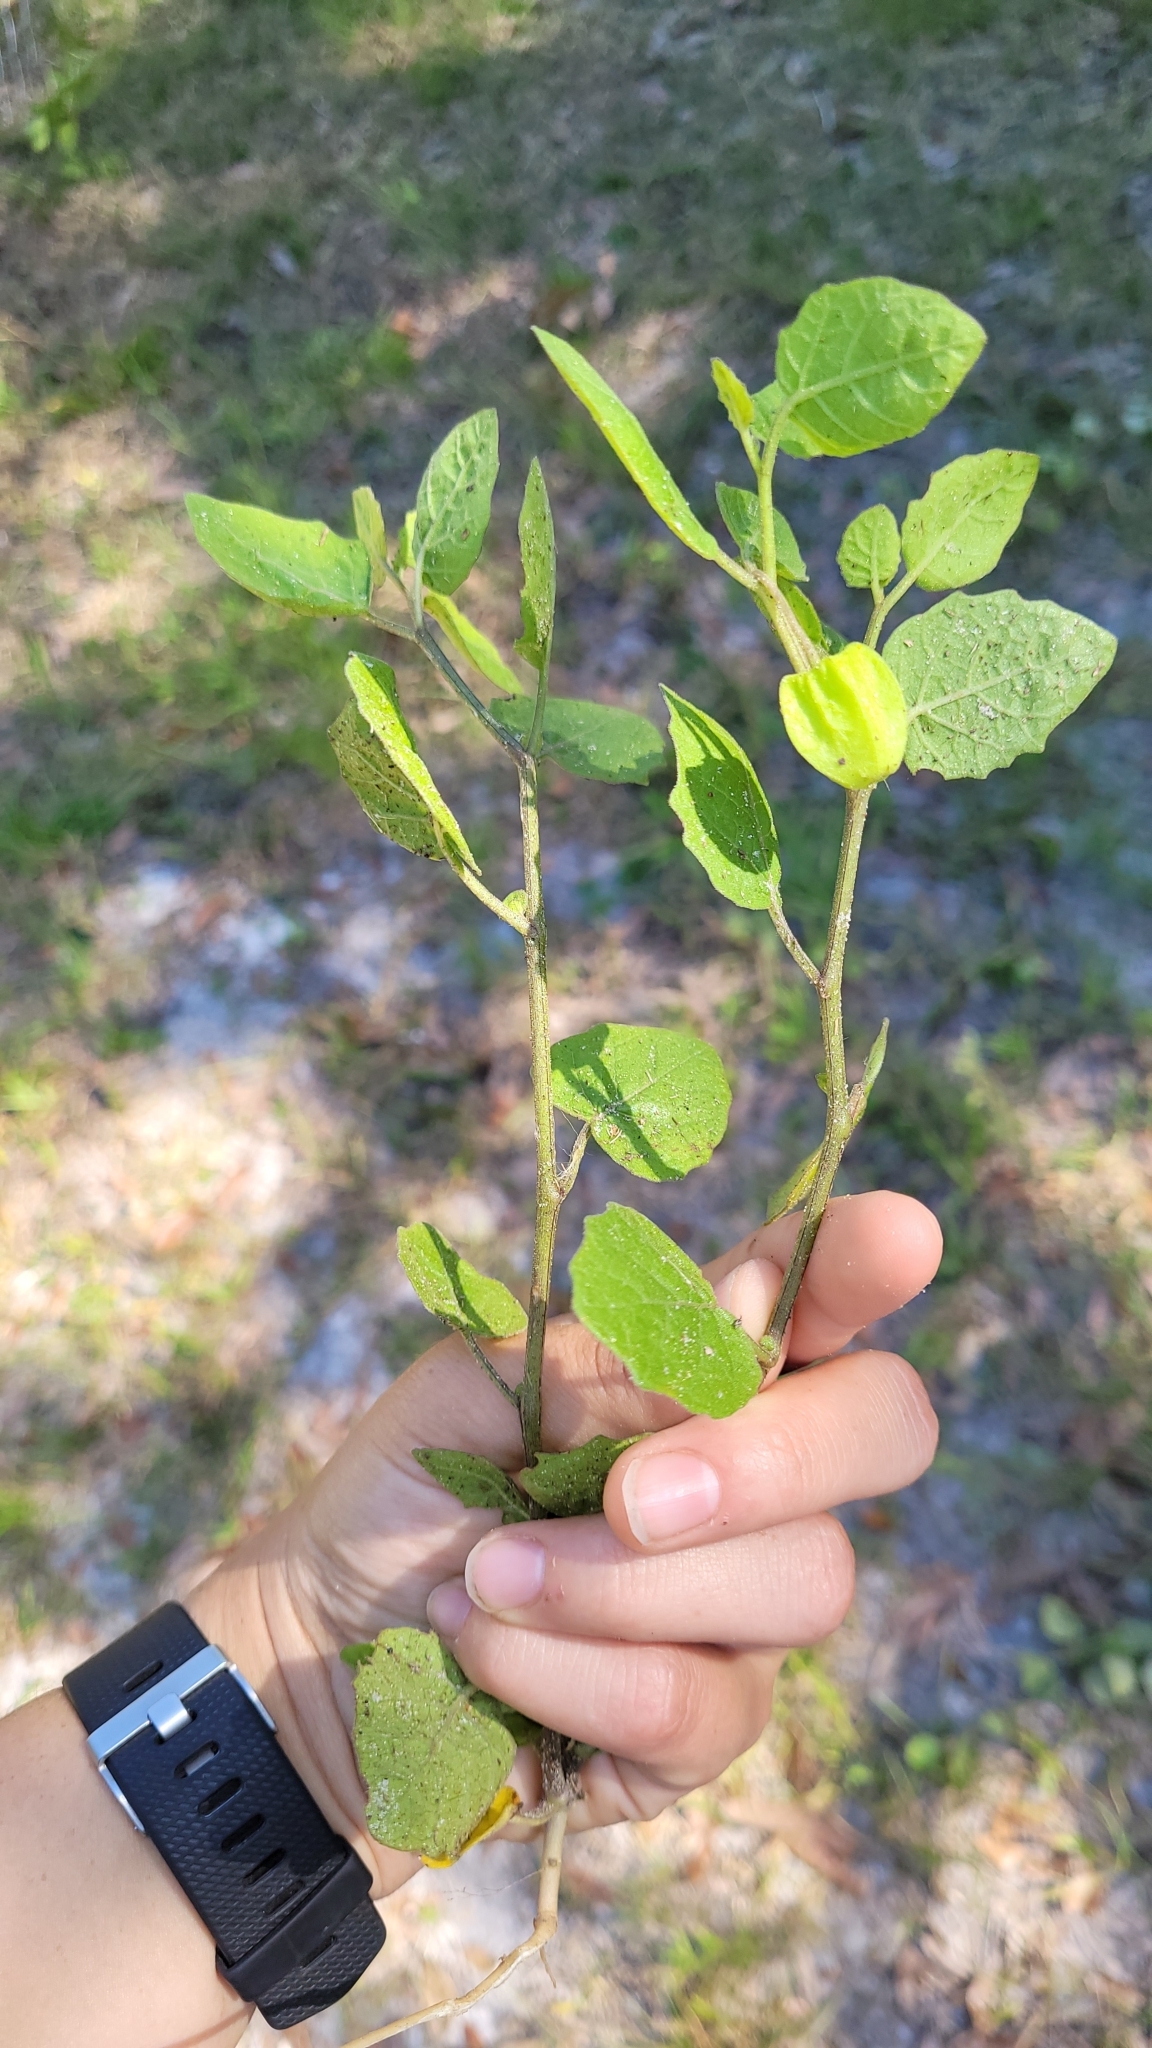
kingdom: Plantae
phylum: Tracheophyta
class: Magnoliopsida
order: Solanales
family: Solanaceae
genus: Physalis
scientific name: Physalis arenicola
